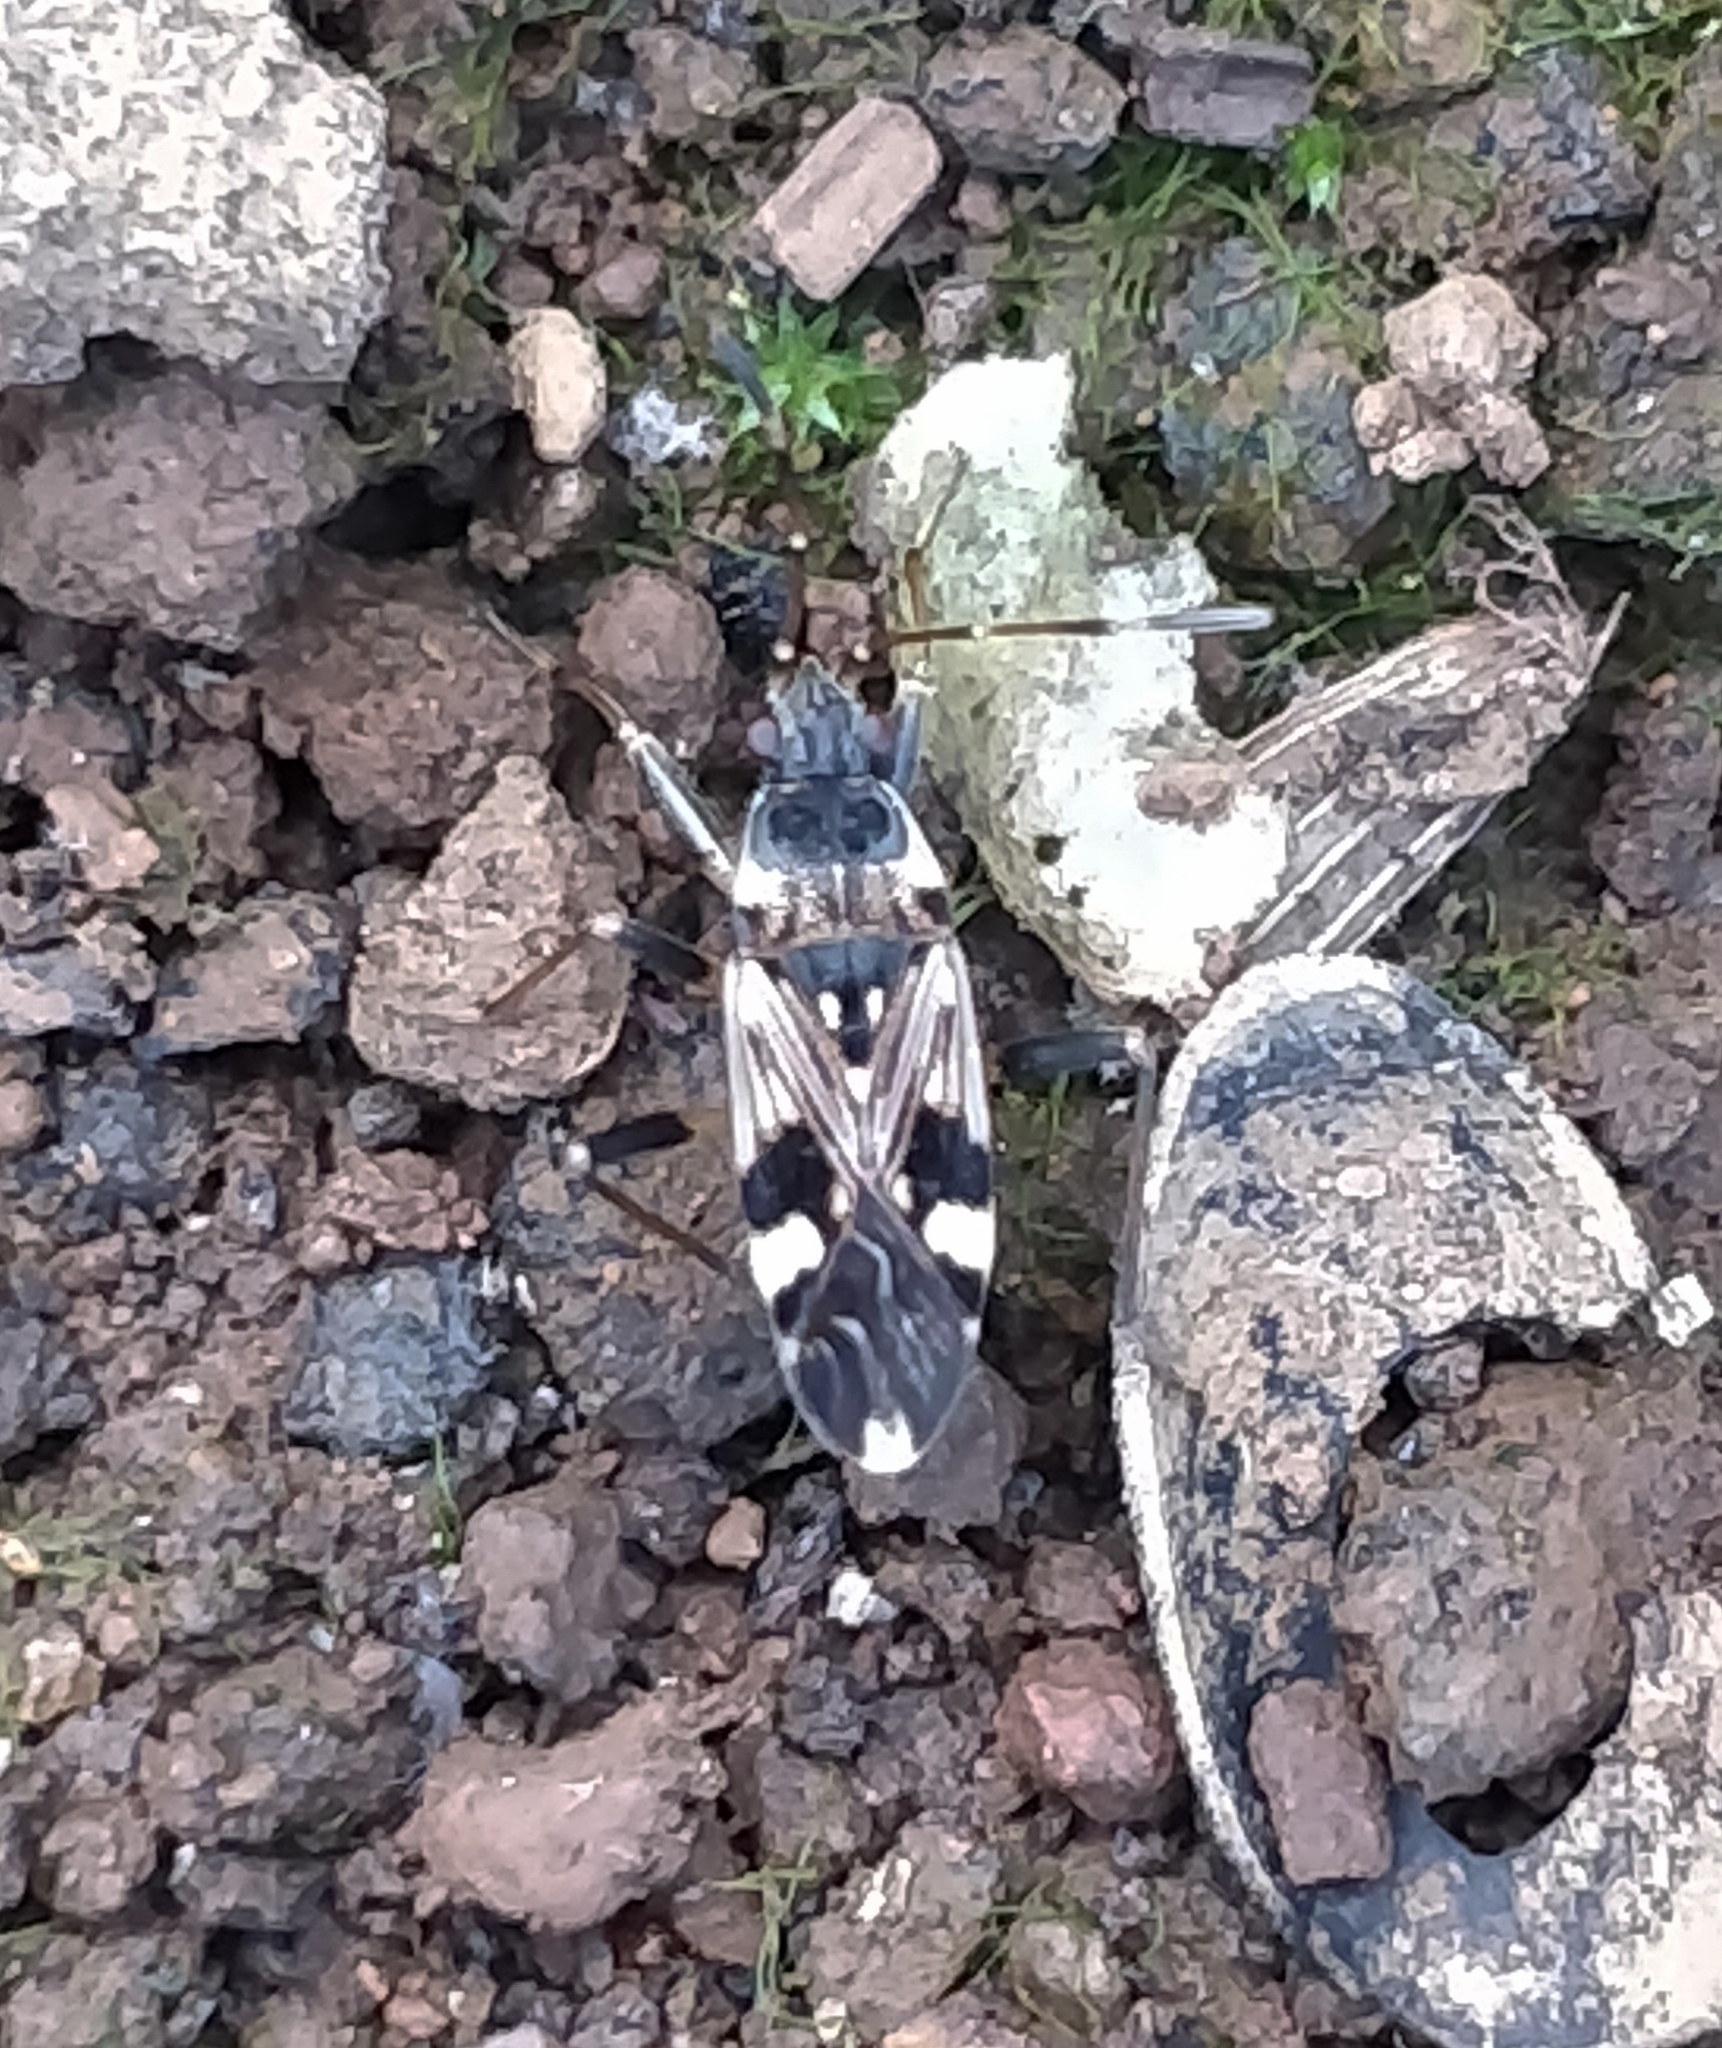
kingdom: Animalia
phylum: Arthropoda
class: Insecta
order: Hemiptera
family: Rhyparochromidae
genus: Beosus
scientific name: Beosus maritimus
